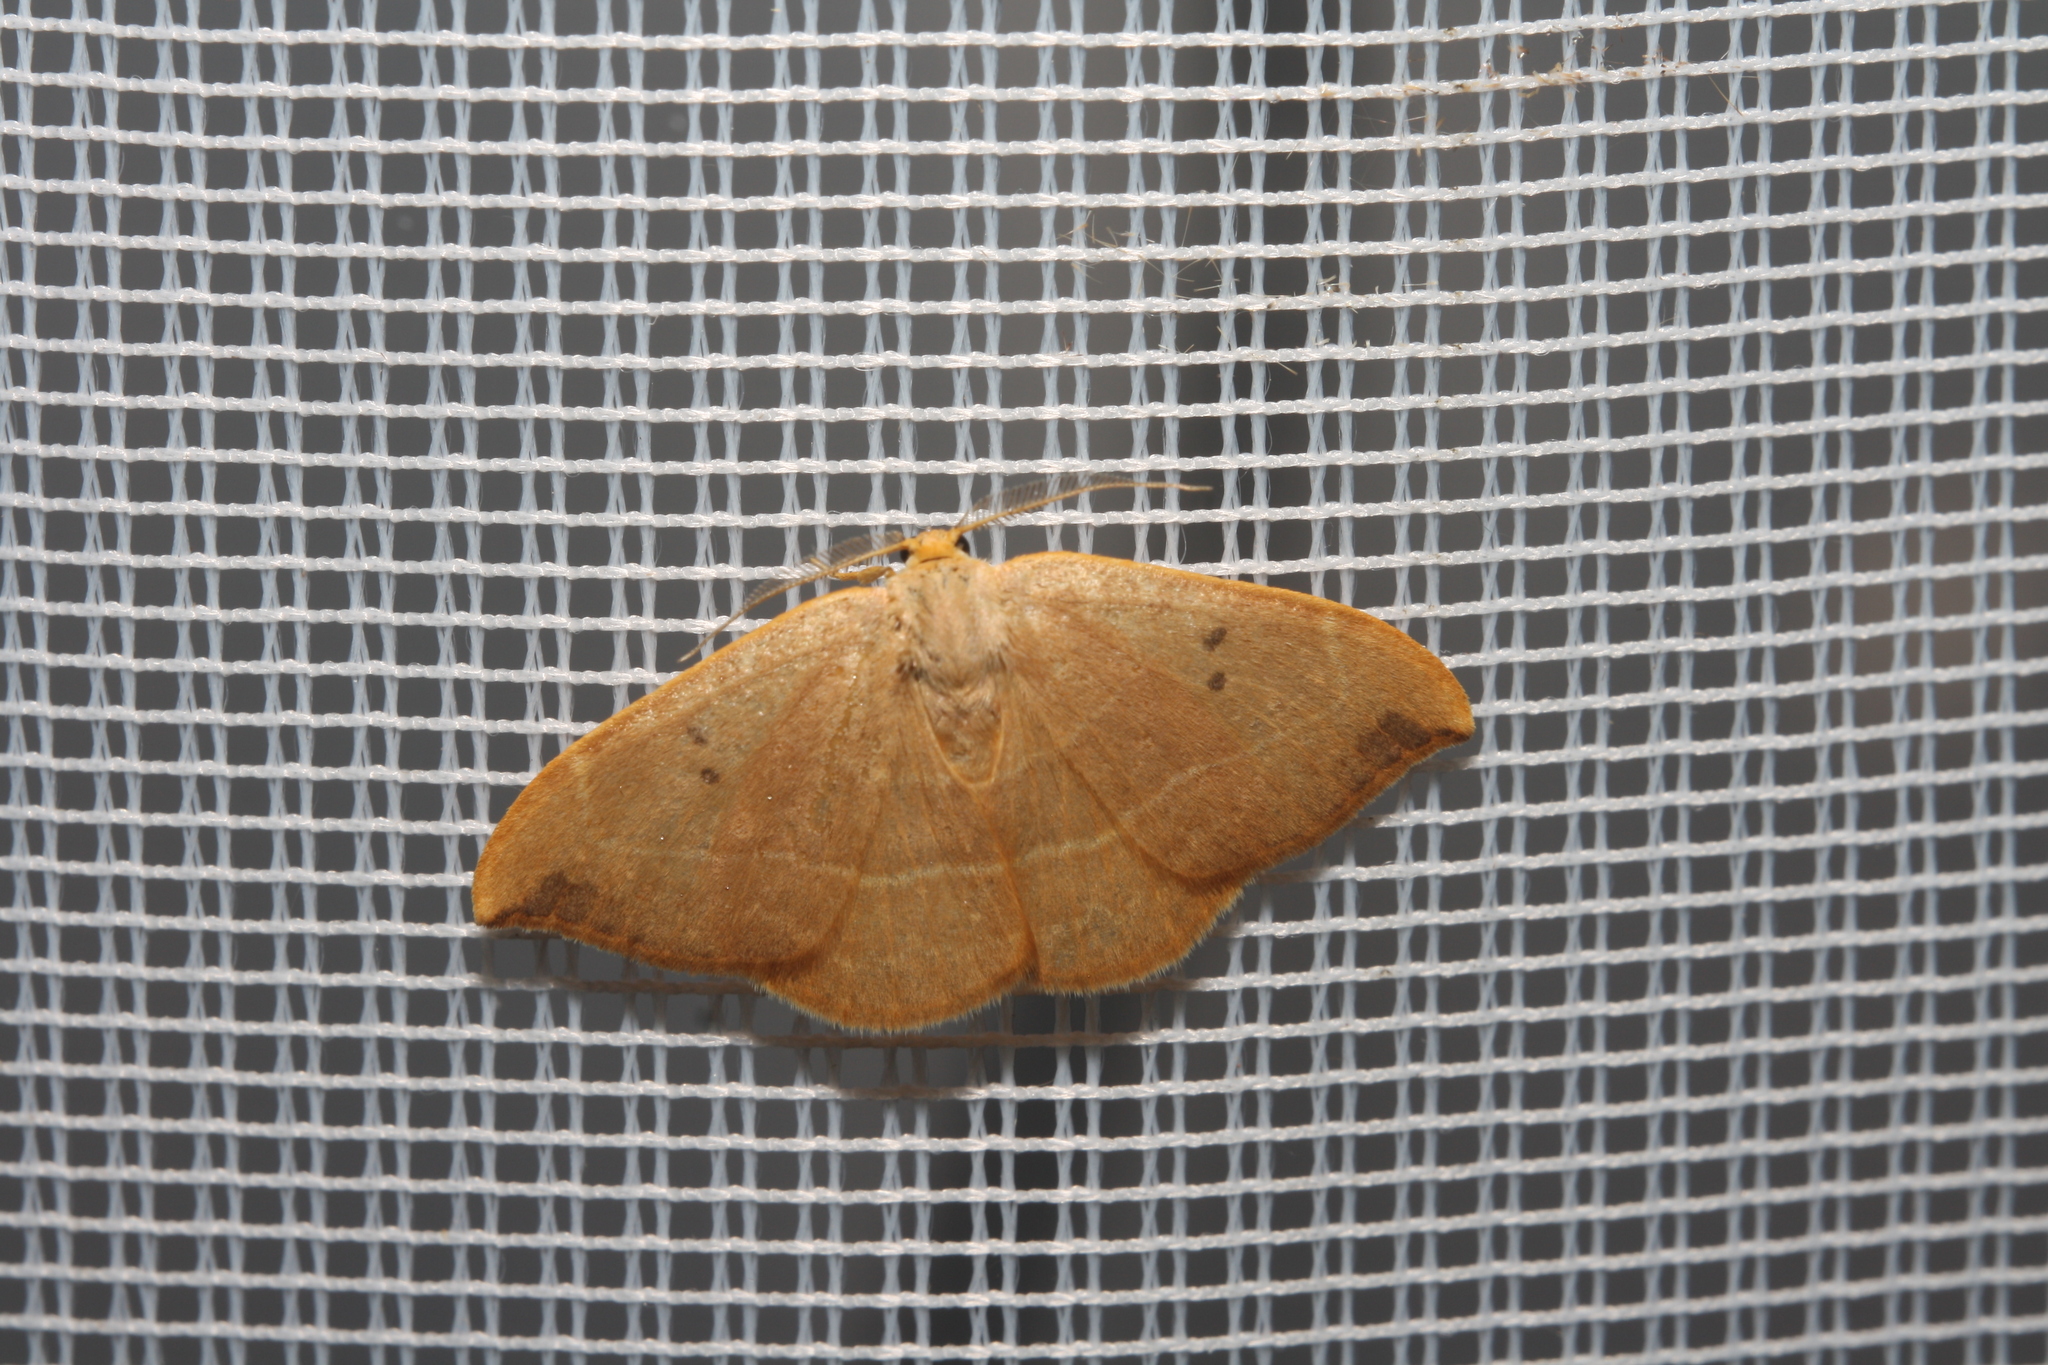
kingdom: Animalia
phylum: Arthropoda
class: Insecta
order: Lepidoptera
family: Drepanidae
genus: Watsonalla
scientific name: Watsonalla binaria
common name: Oak hook-tip
